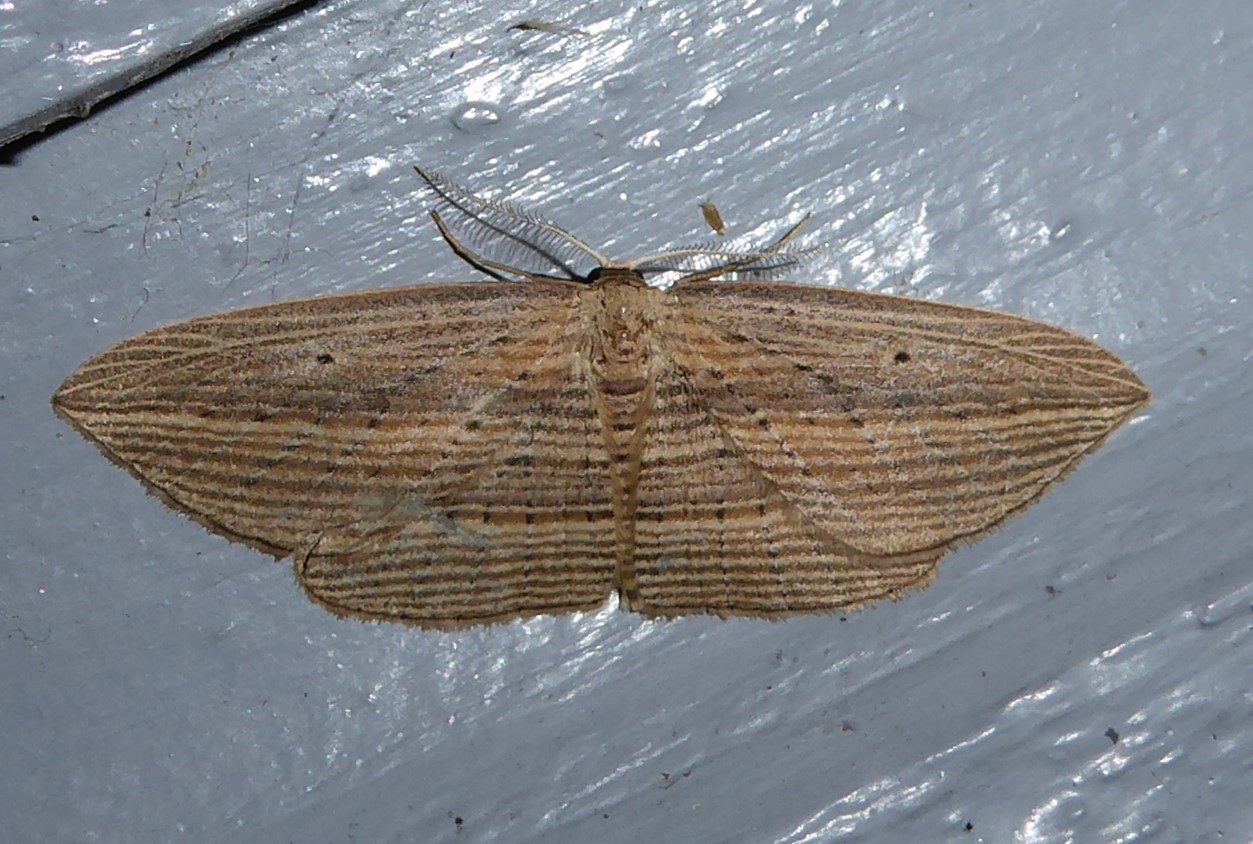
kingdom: Animalia
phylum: Arthropoda
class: Insecta
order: Lepidoptera
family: Geometridae
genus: Epiphryne
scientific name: Epiphryne verriculata
